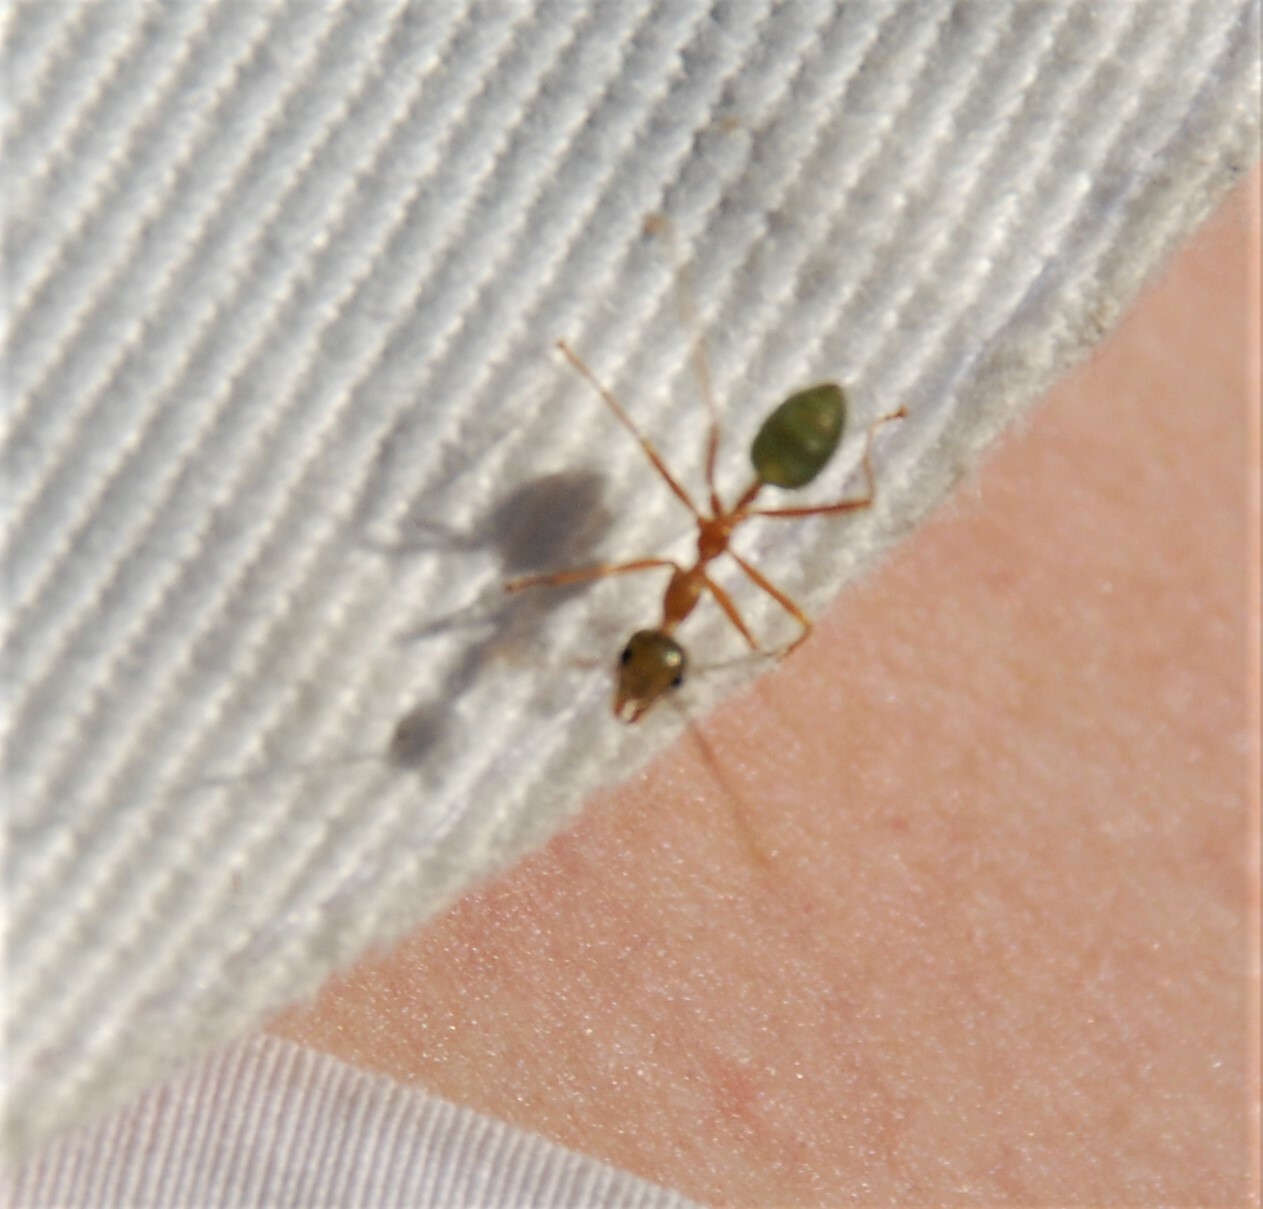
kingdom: Animalia
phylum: Arthropoda
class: Insecta
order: Hymenoptera
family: Formicidae
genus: Oecophylla
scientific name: Oecophylla smaragdina
